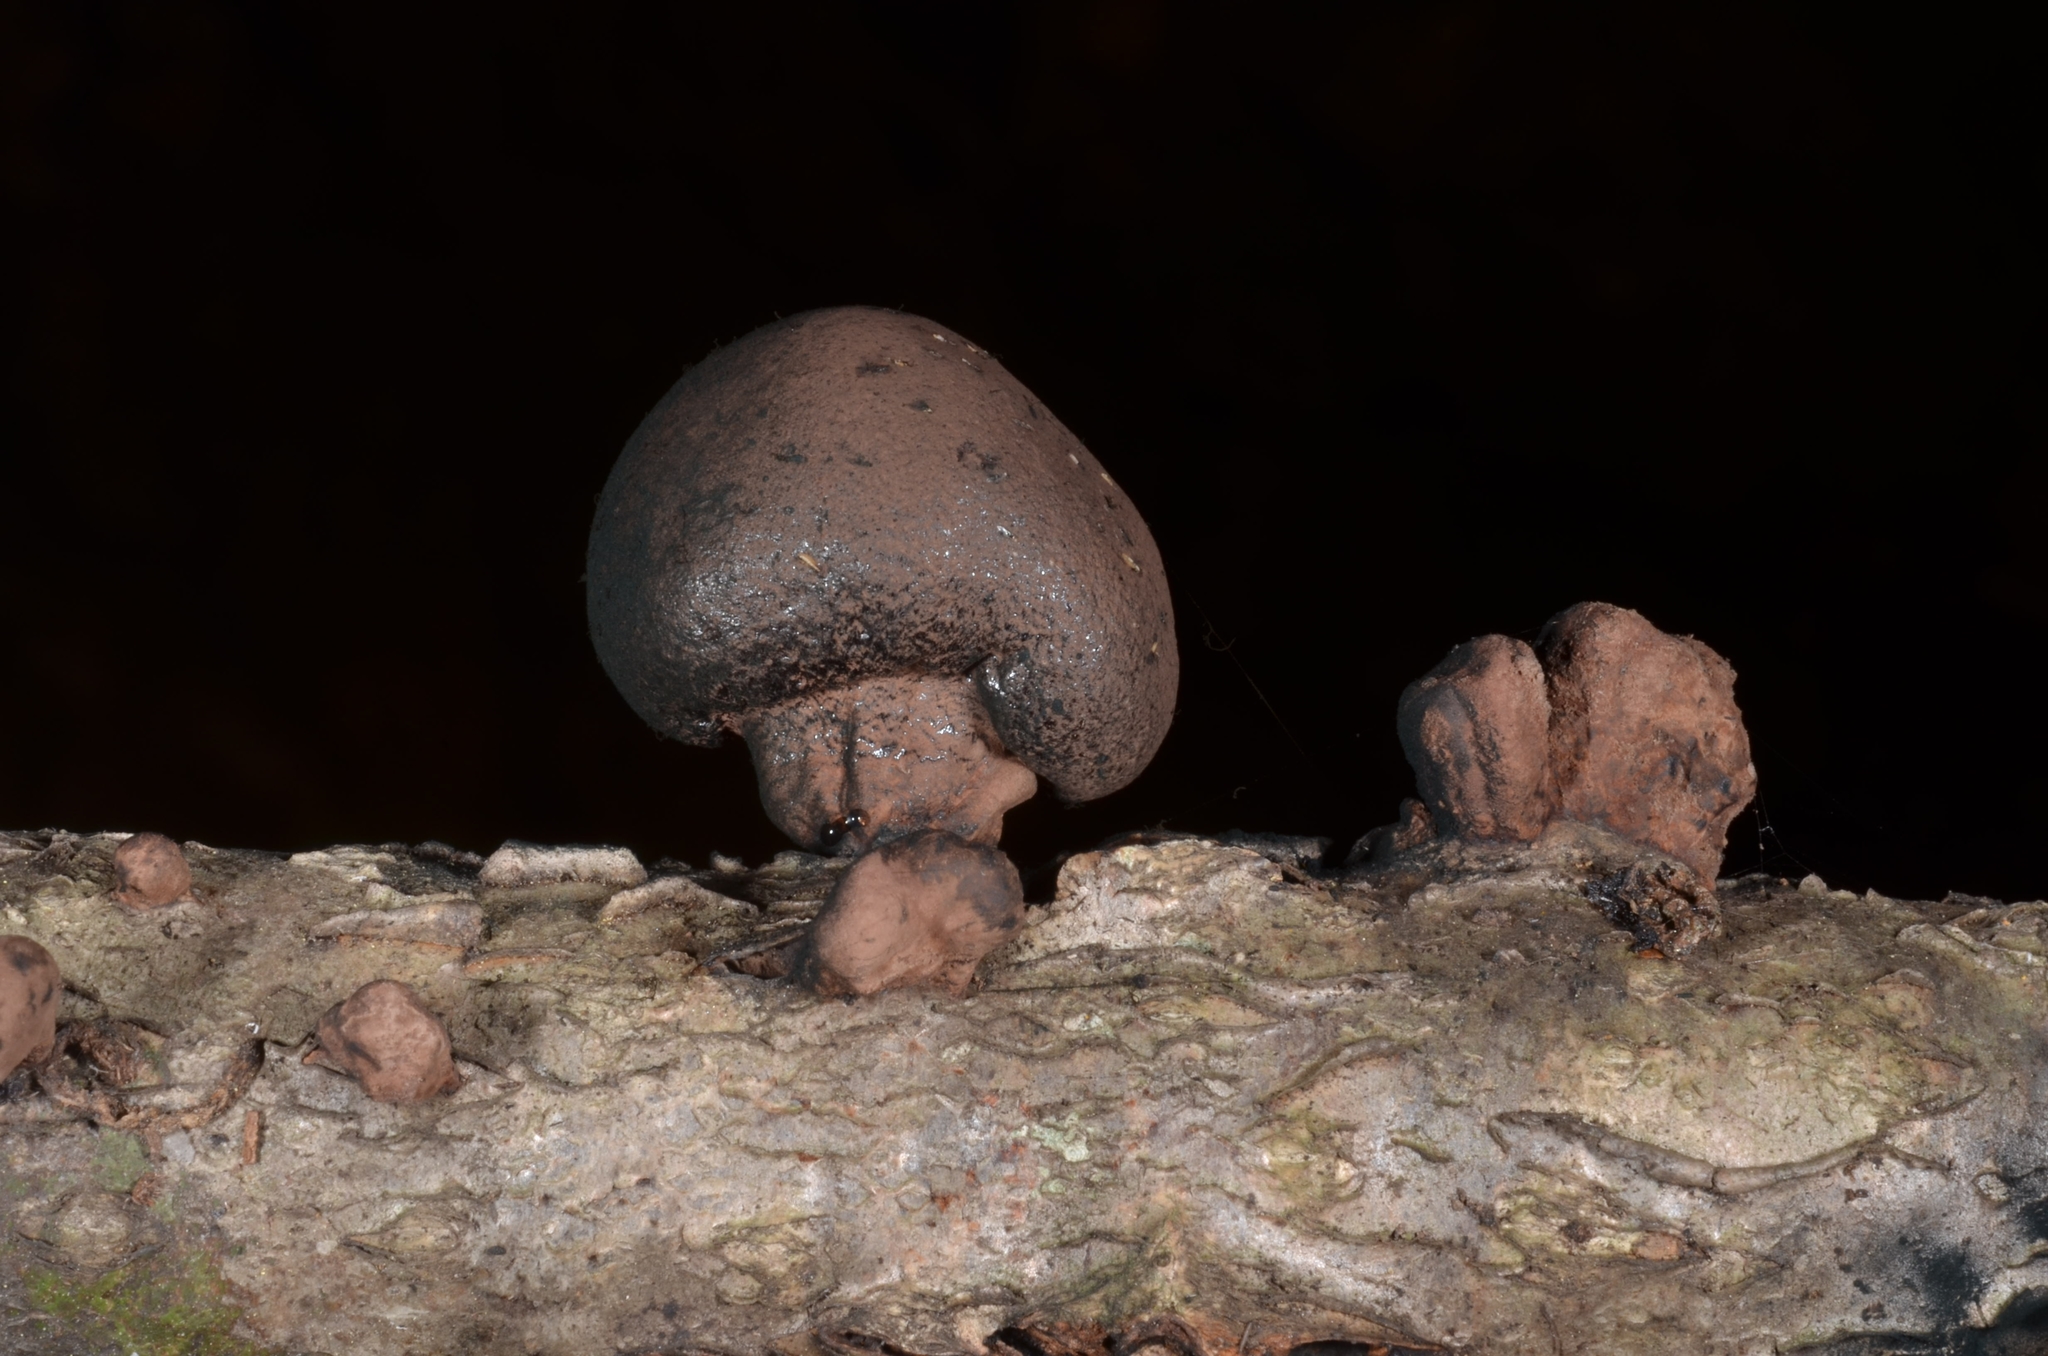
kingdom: Fungi
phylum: Ascomycota
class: Sordariomycetes
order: Xylariales
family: Hypoxylaceae
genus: Daldinia
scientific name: Daldinia carpinicola
